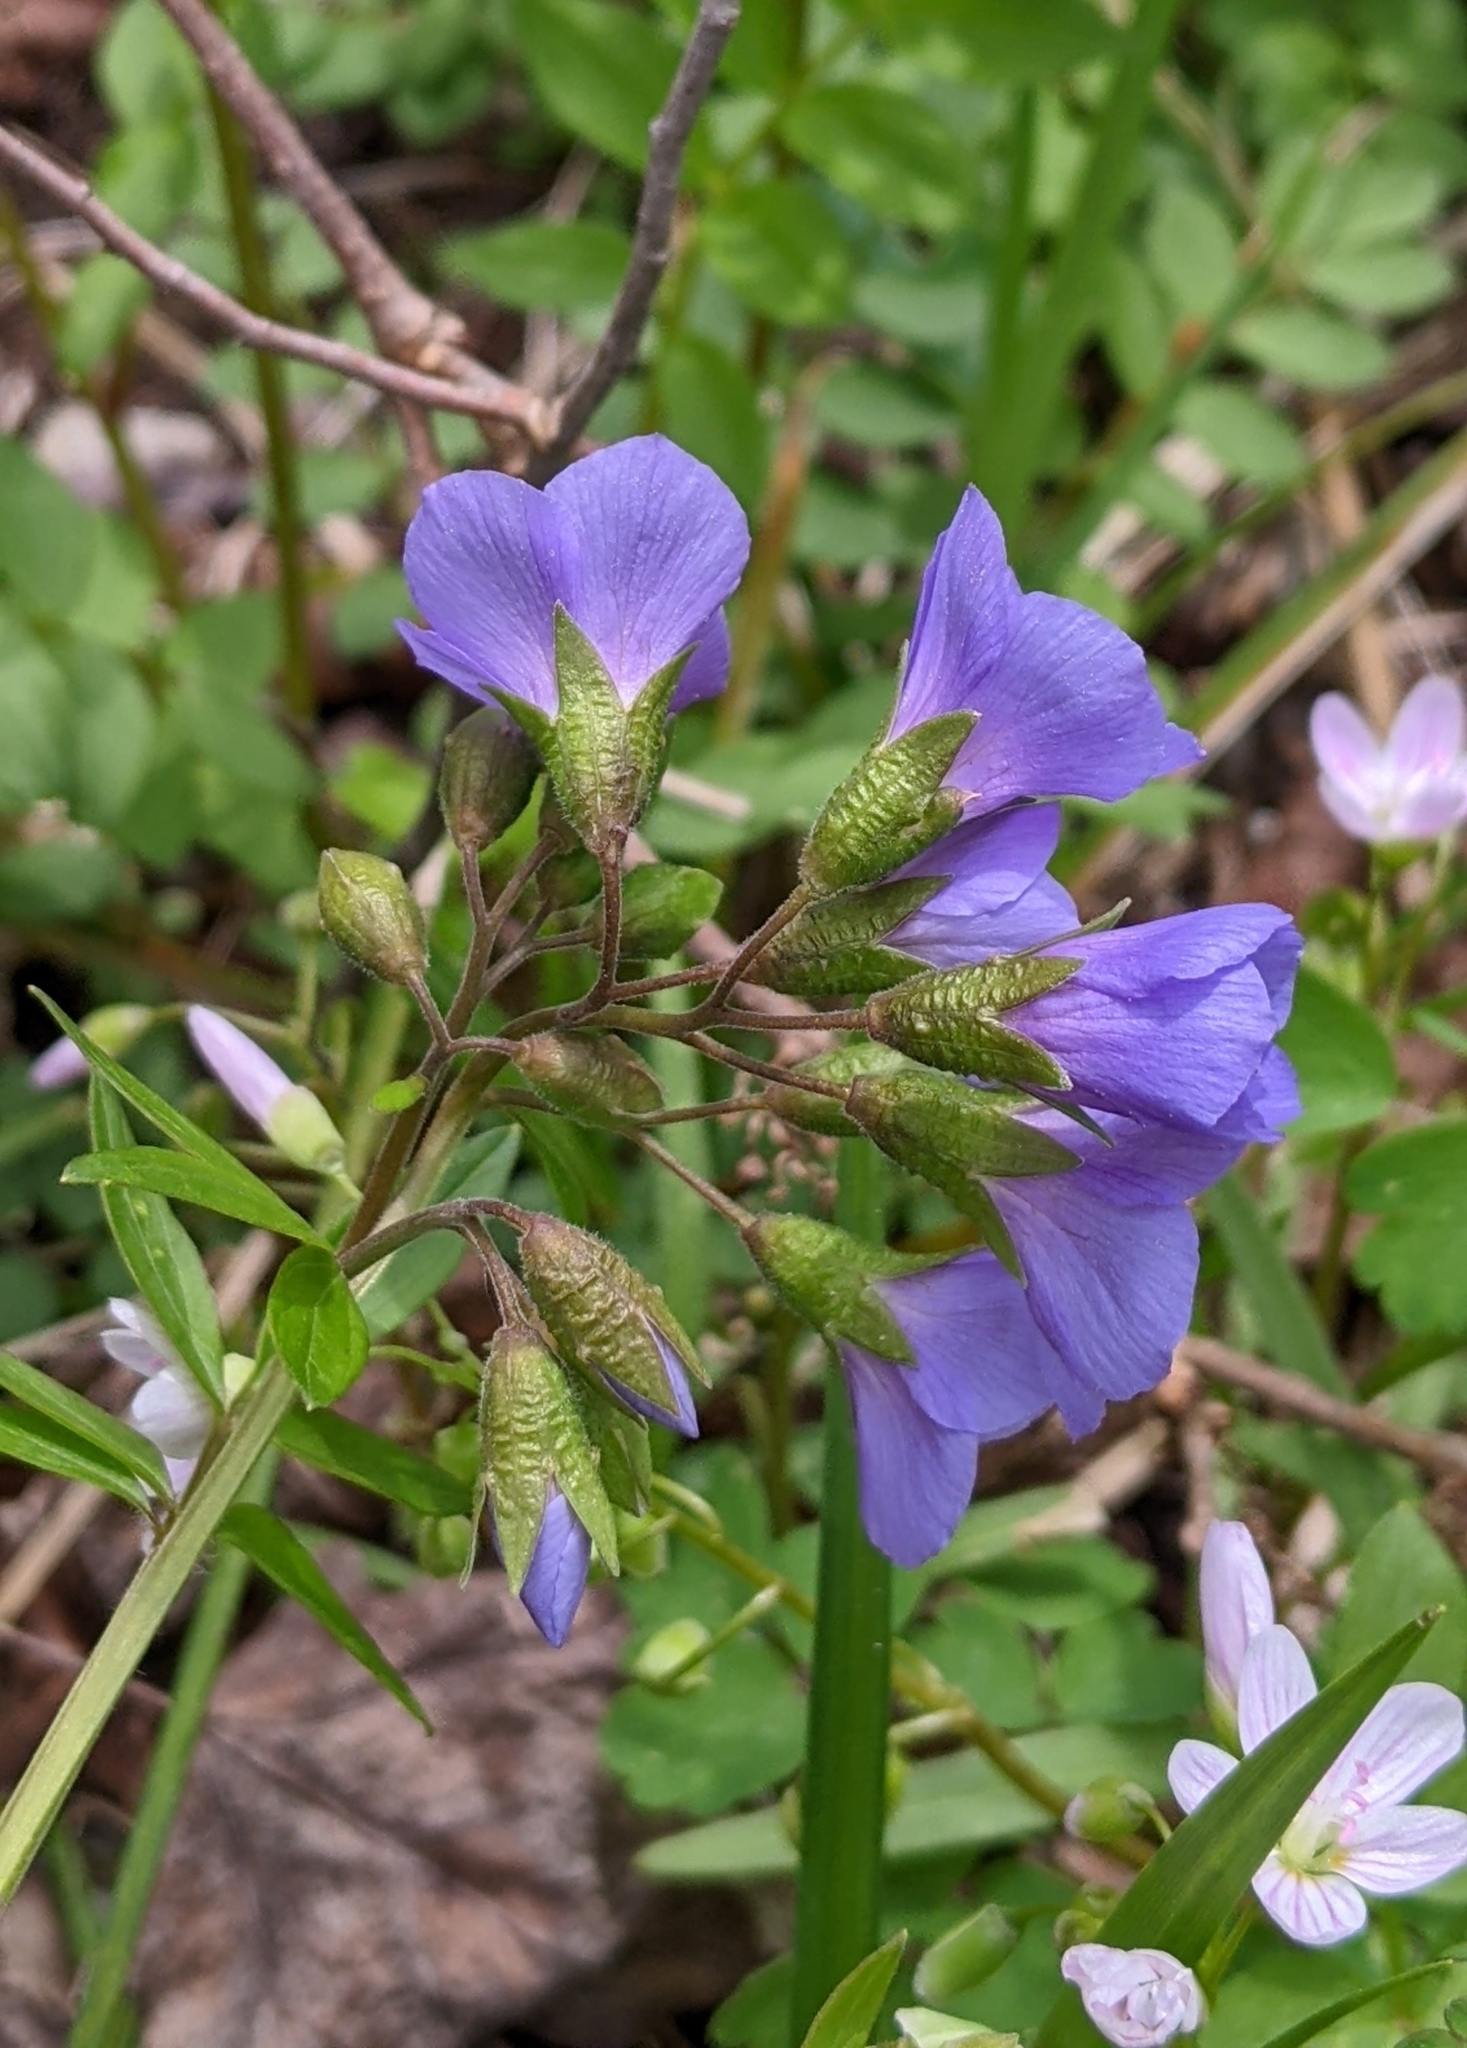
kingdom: Plantae
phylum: Tracheophyta
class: Magnoliopsida
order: Ericales
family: Polemoniaceae
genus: Polemonium
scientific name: Polemonium reptans
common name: Creeping jacob's-ladder
